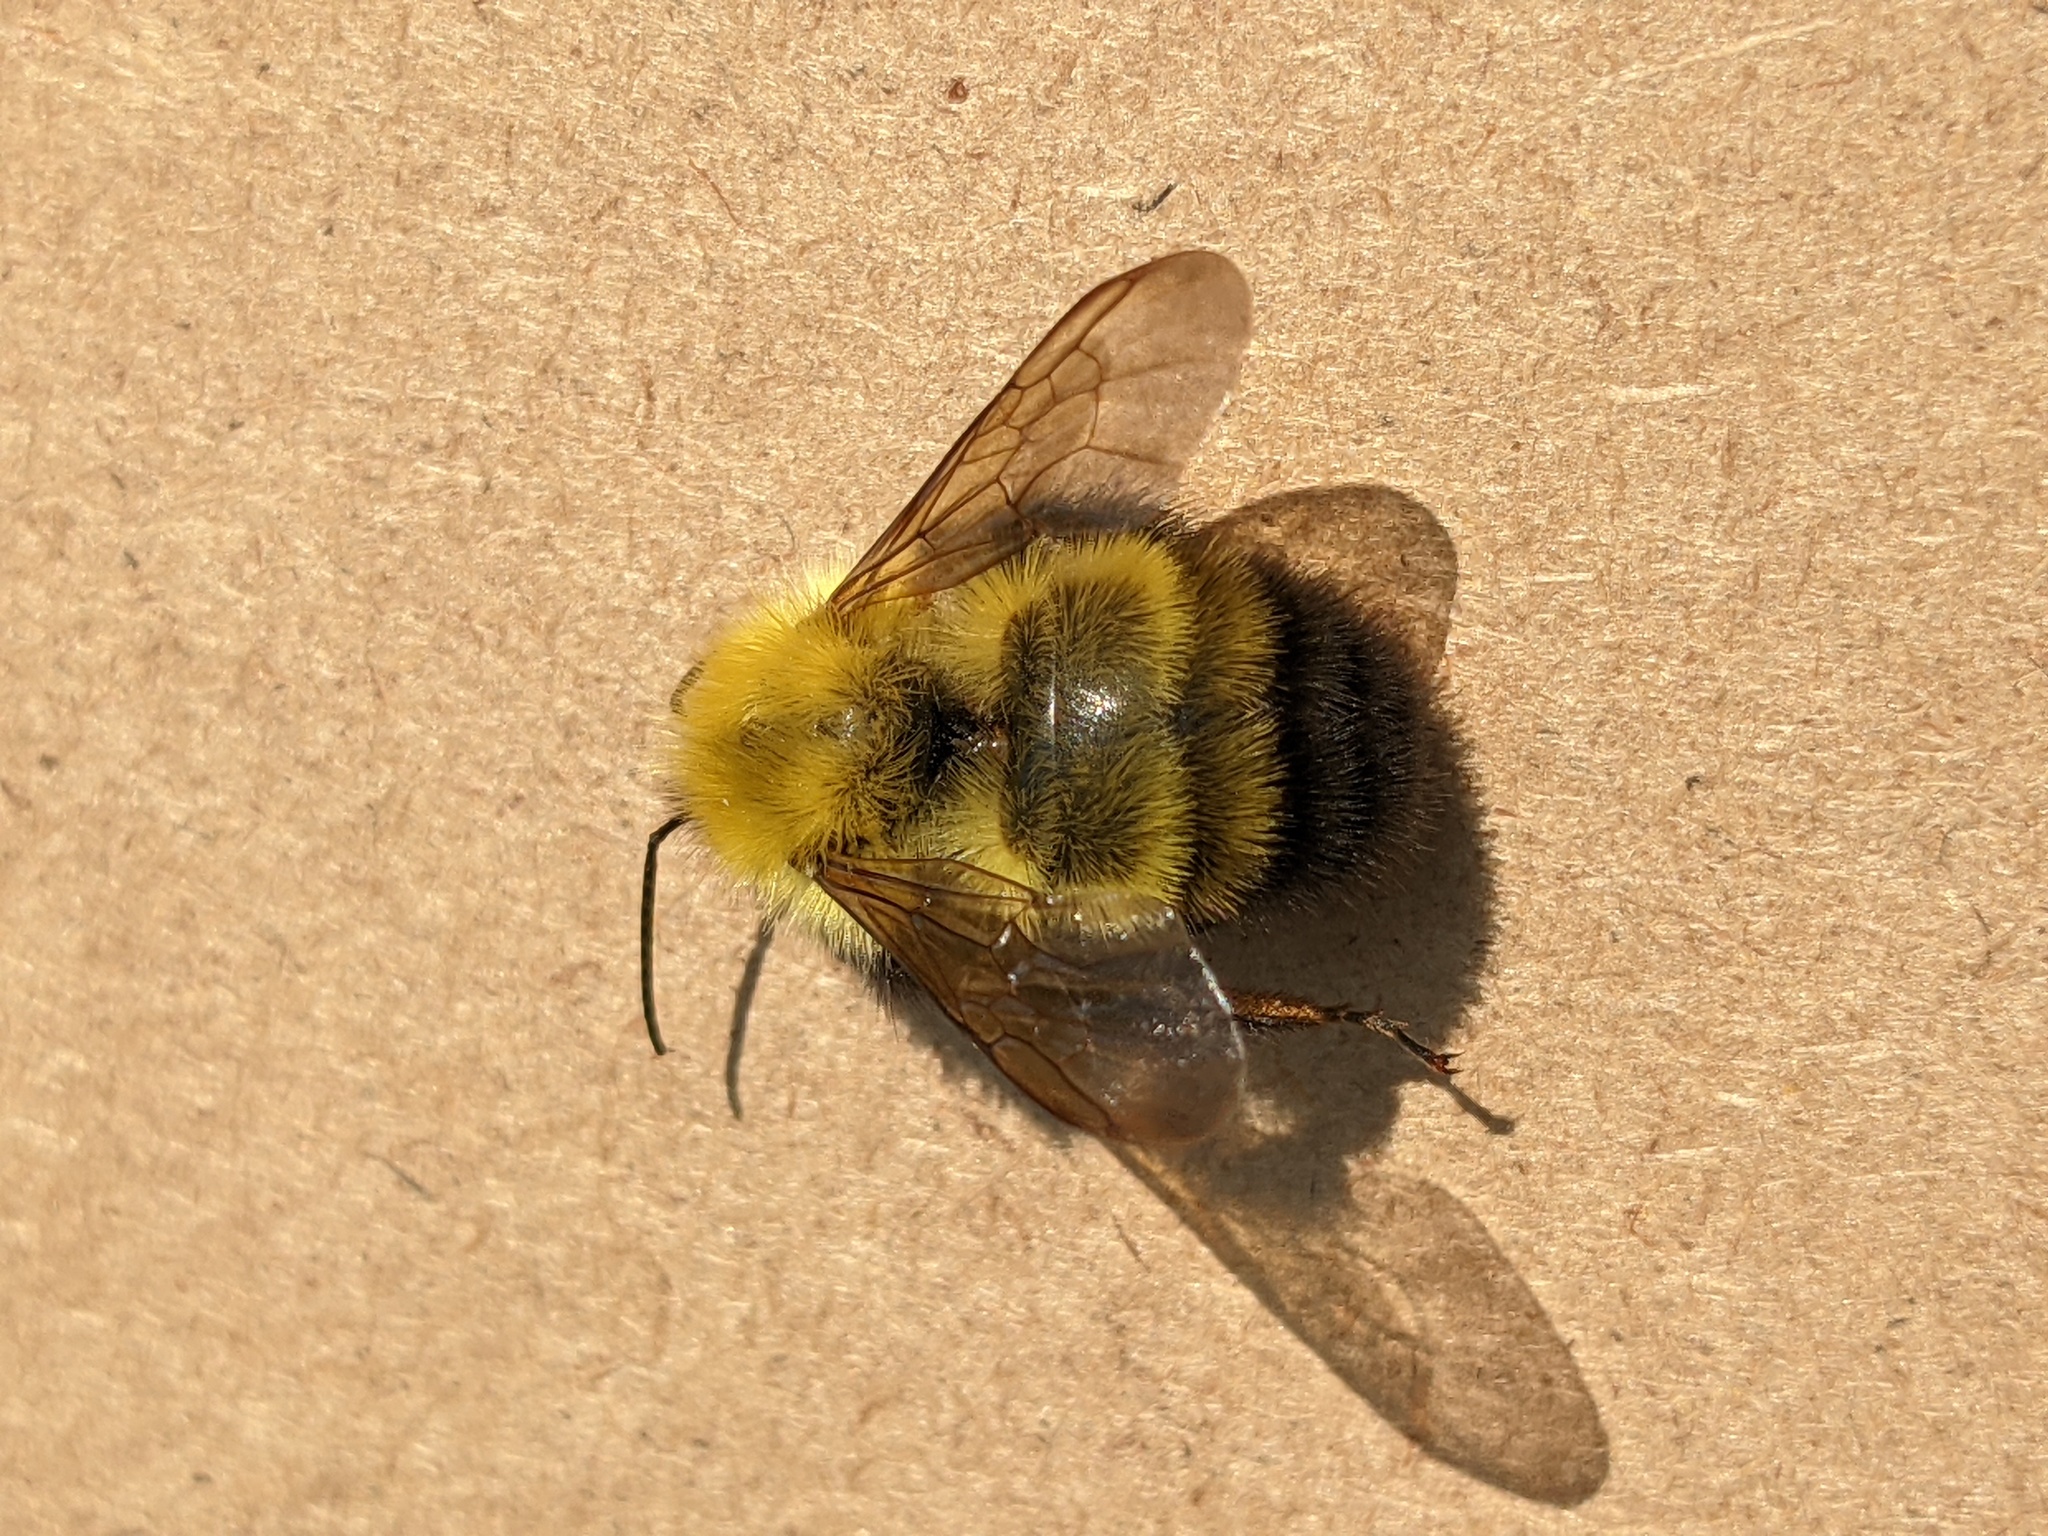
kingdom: Animalia
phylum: Arthropoda
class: Insecta
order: Hymenoptera
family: Apidae
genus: Bombus
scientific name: Bombus perplexus
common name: Confusing bumble bee
